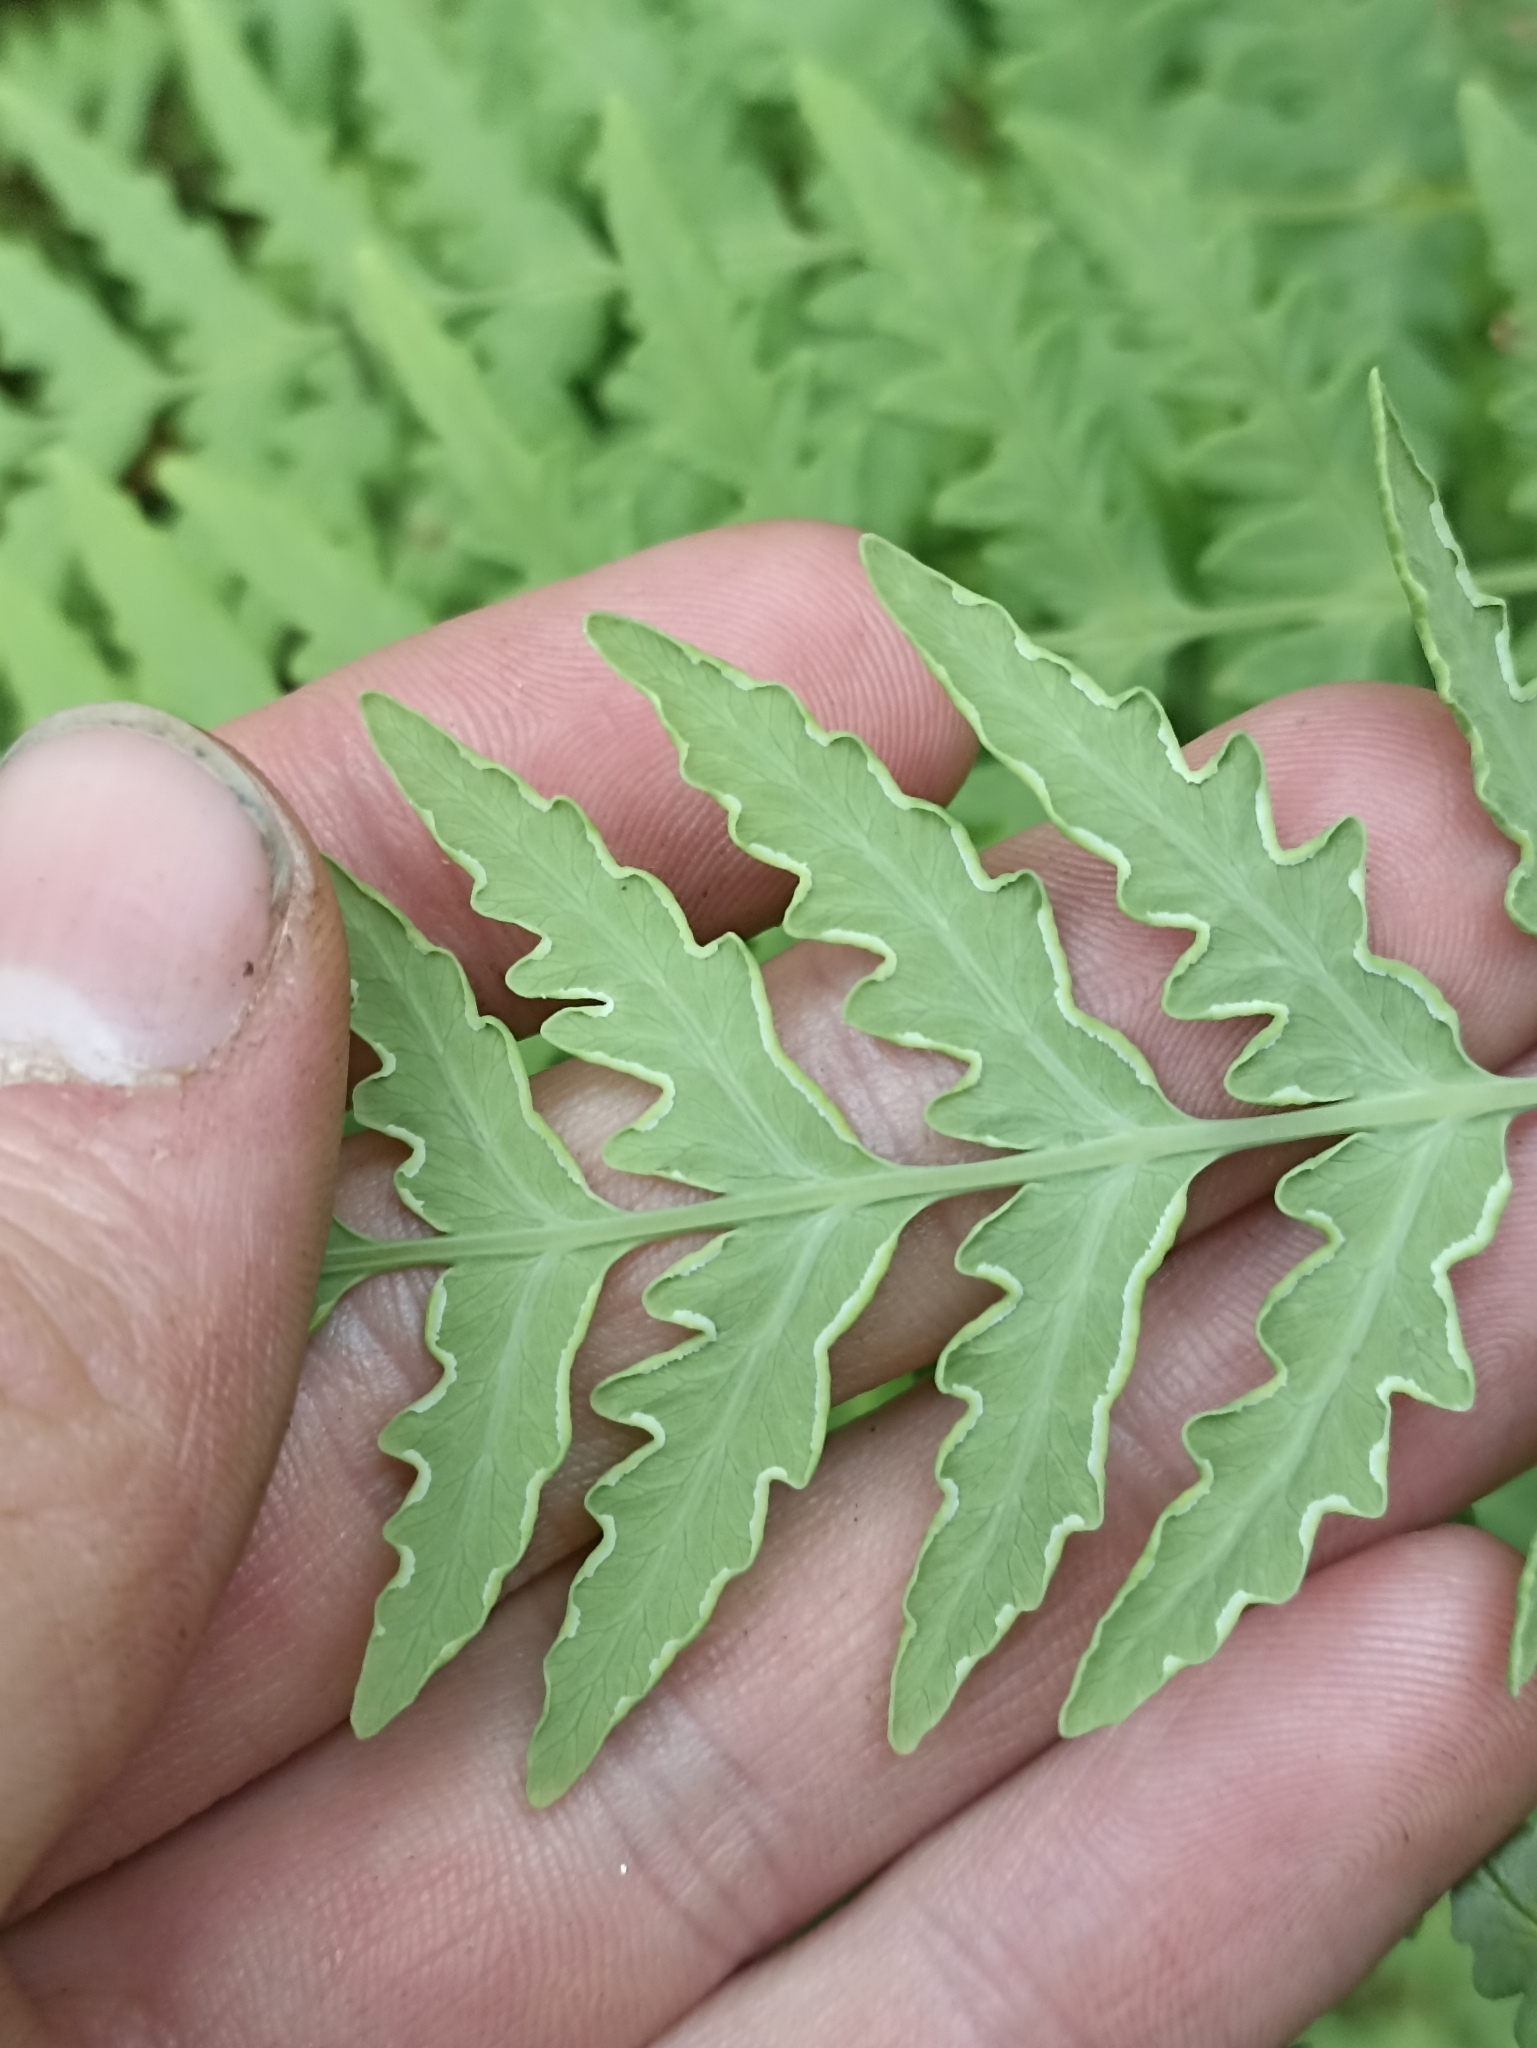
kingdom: Plantae
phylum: Tracheophyta
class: Polypodiopsida
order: Polypodiales
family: Dennstaedtiaceae
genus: Histiopteris
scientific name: Histiopteris incisa
